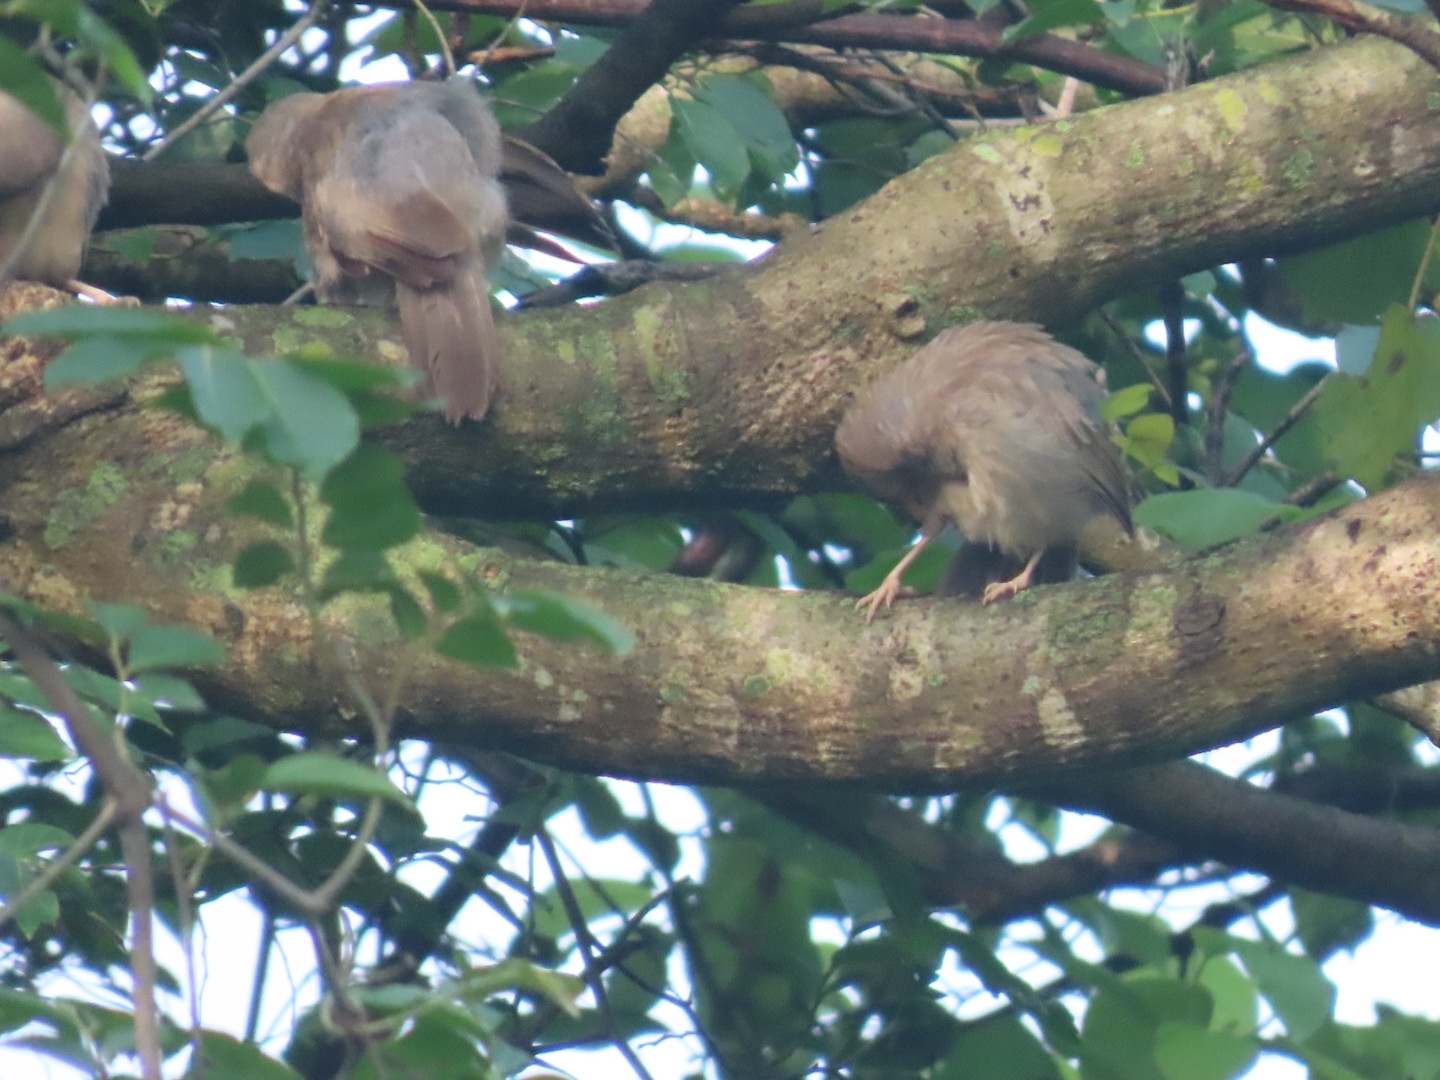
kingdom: Animalia
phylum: Chordata
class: Aves
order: Passeriformes
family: Leiothrichidae
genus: Turdoides
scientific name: Turdoides striata
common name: Jungle babbler
